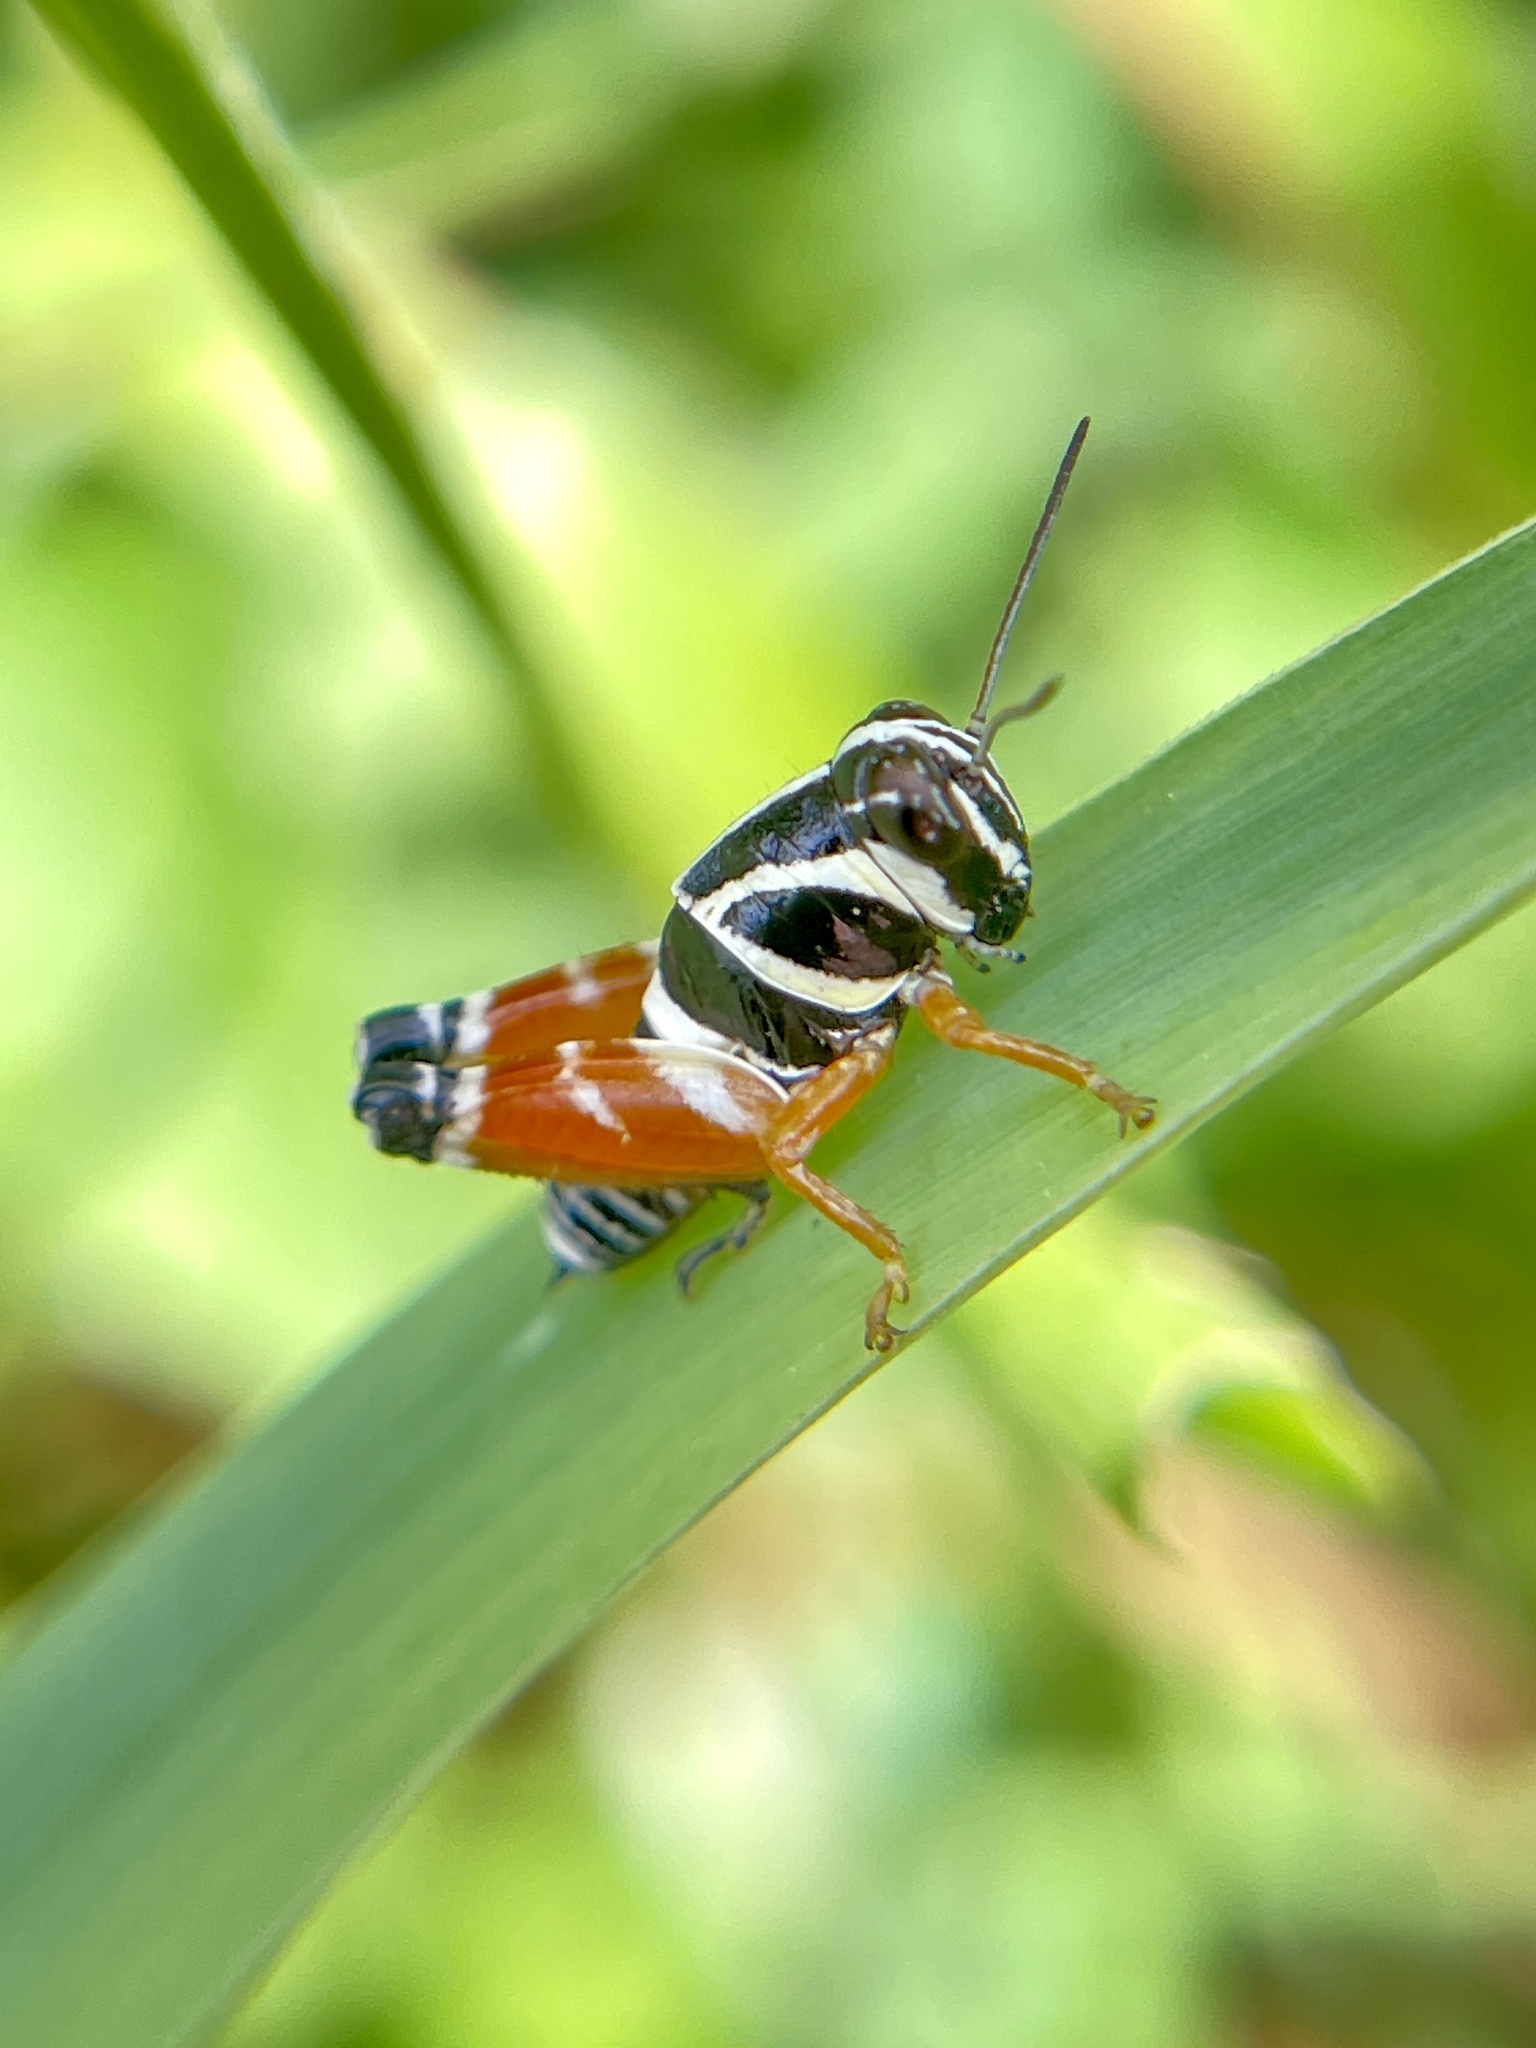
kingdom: Animalia
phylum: Arthropoda
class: Insecta
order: Orthoptera
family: Acrididae
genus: Aidemona
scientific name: Aidemona azteca
